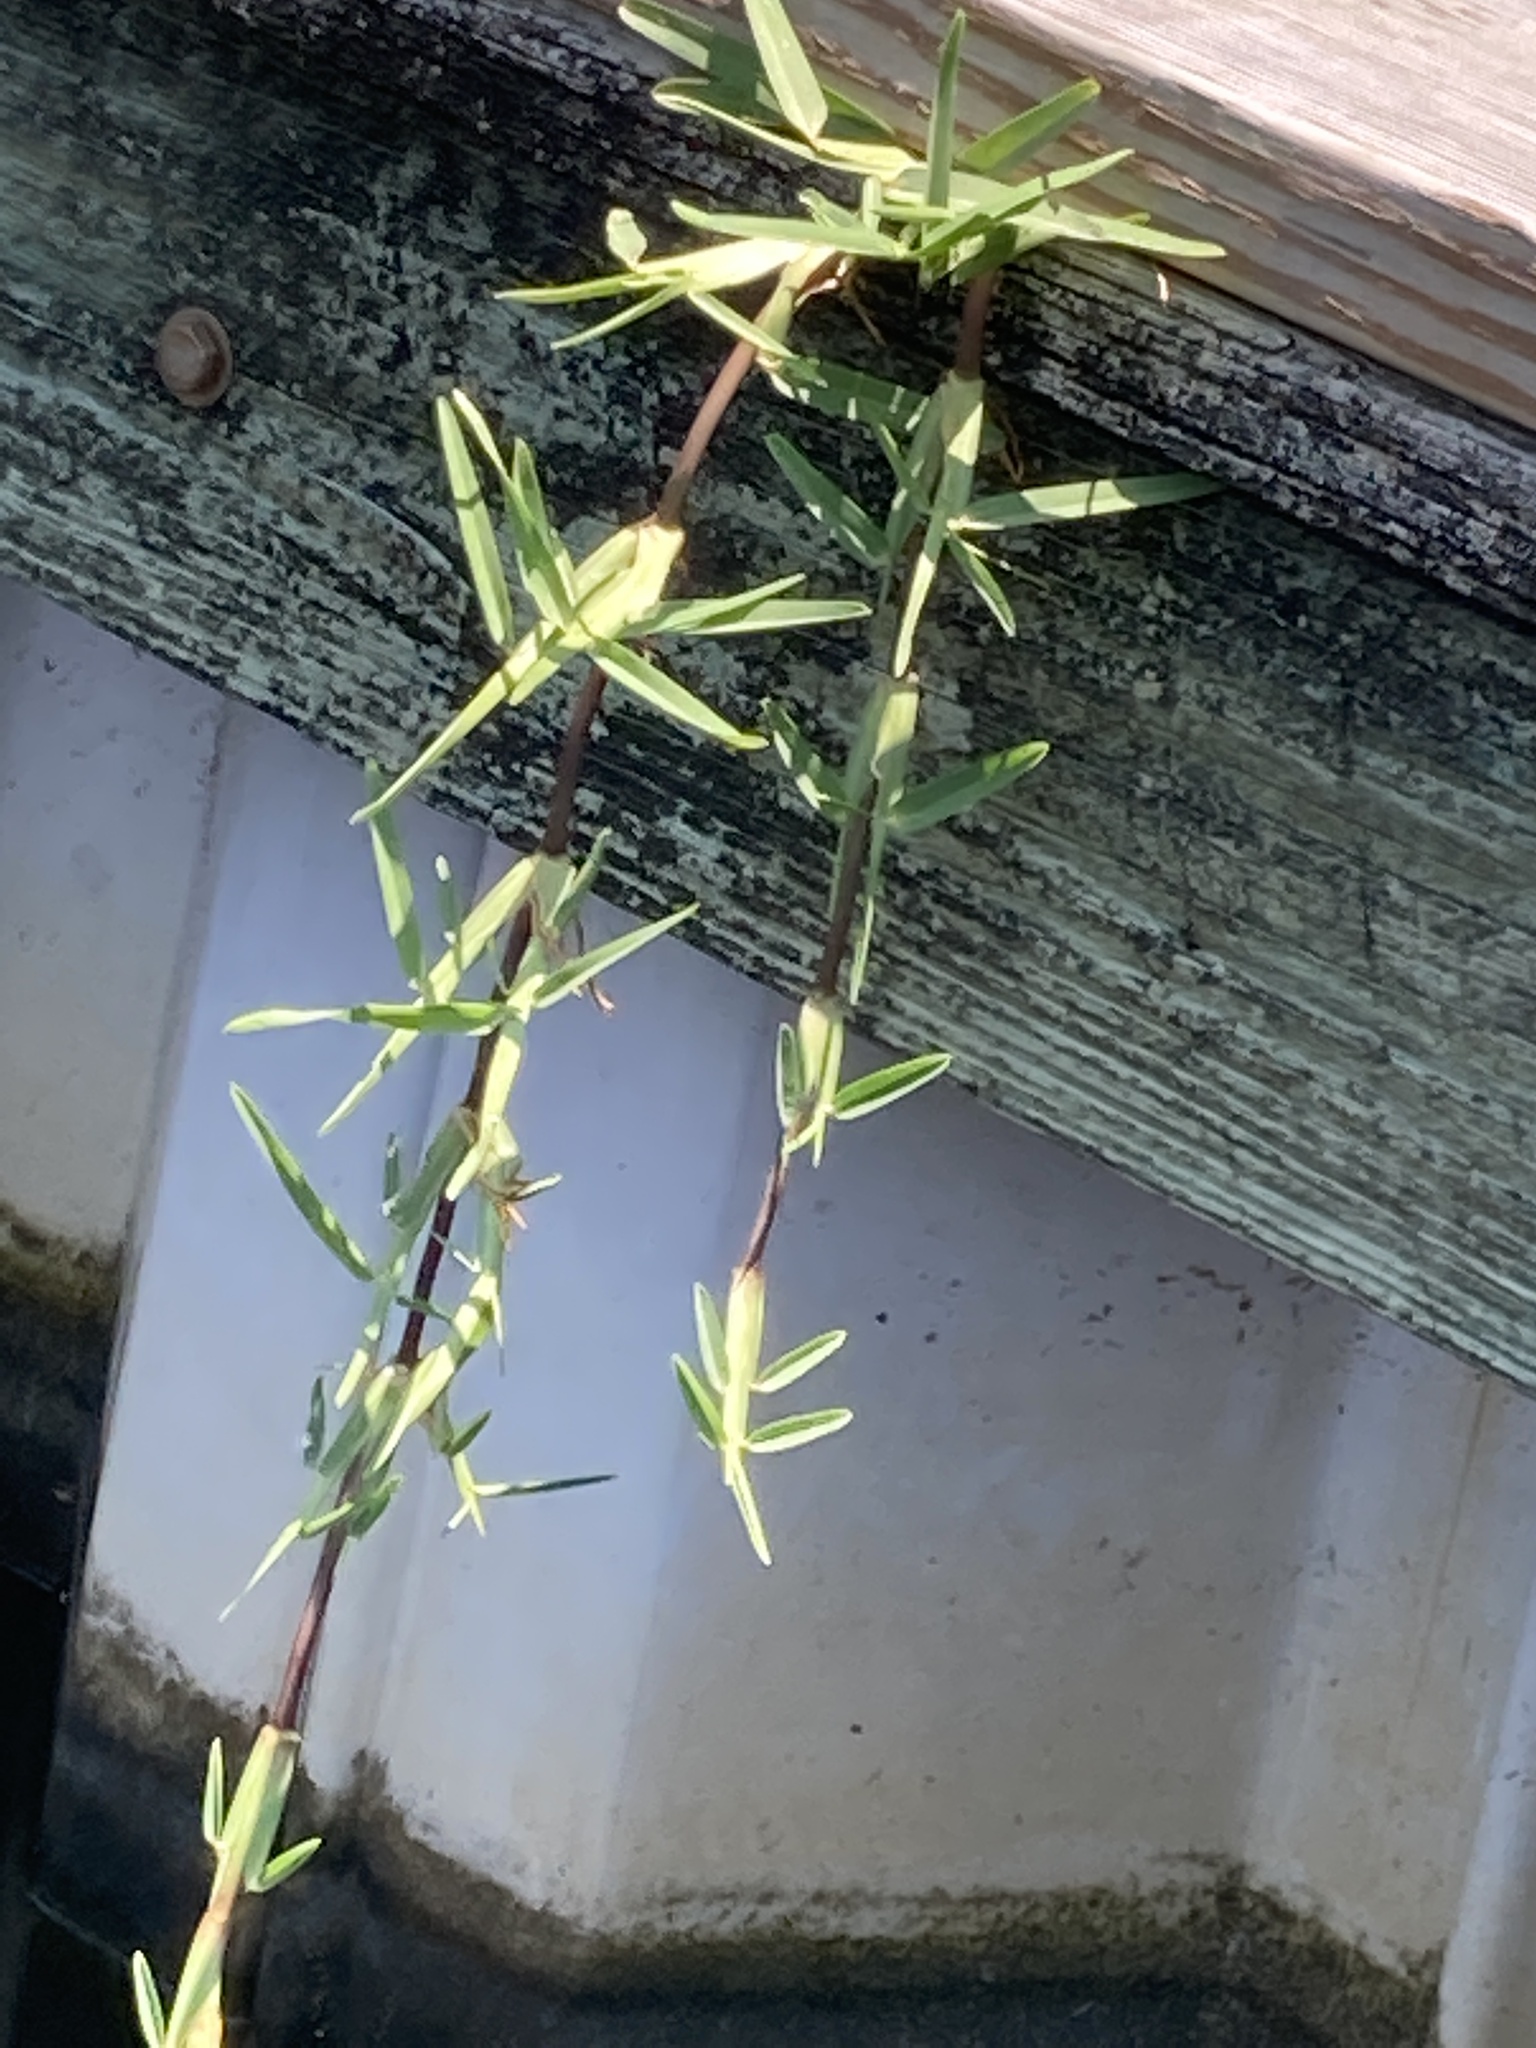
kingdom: Plantae
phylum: Tracheophyta
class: Liliopsida
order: Poales
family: Poaceae
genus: Stenotaphrum
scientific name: Stenotaphrum secundatum
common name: St. augustine grass
